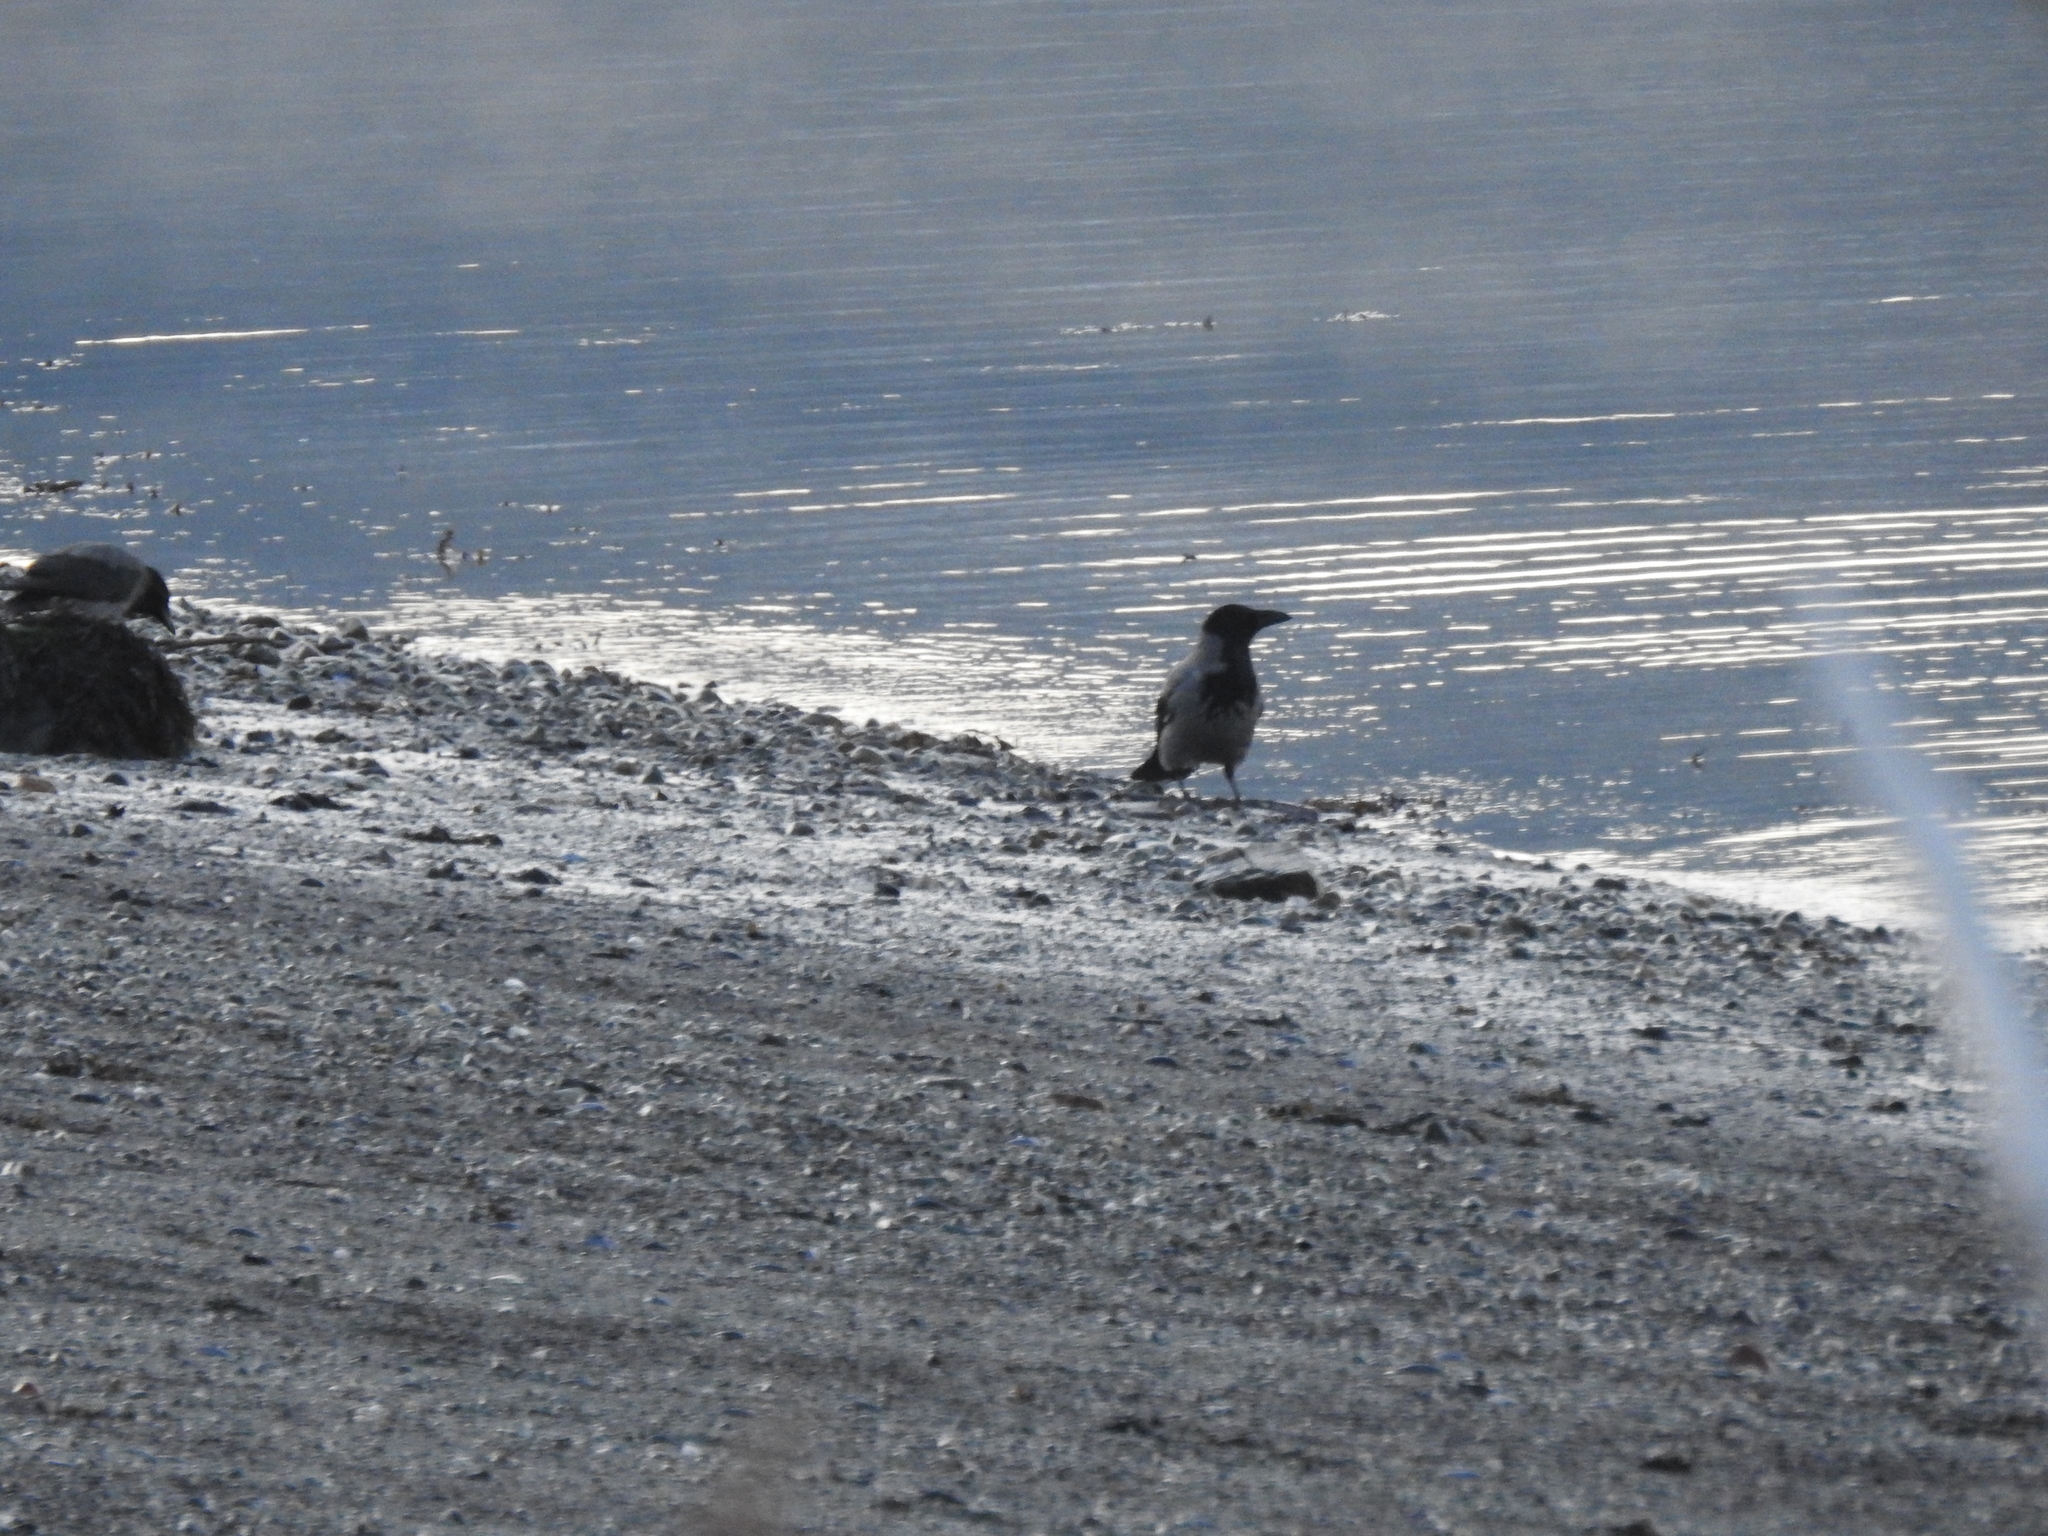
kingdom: Animalia
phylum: Chordata
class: Aves
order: Passeriformes
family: Corvidae
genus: Corvus
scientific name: Corvus cornix
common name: Hooded crow
